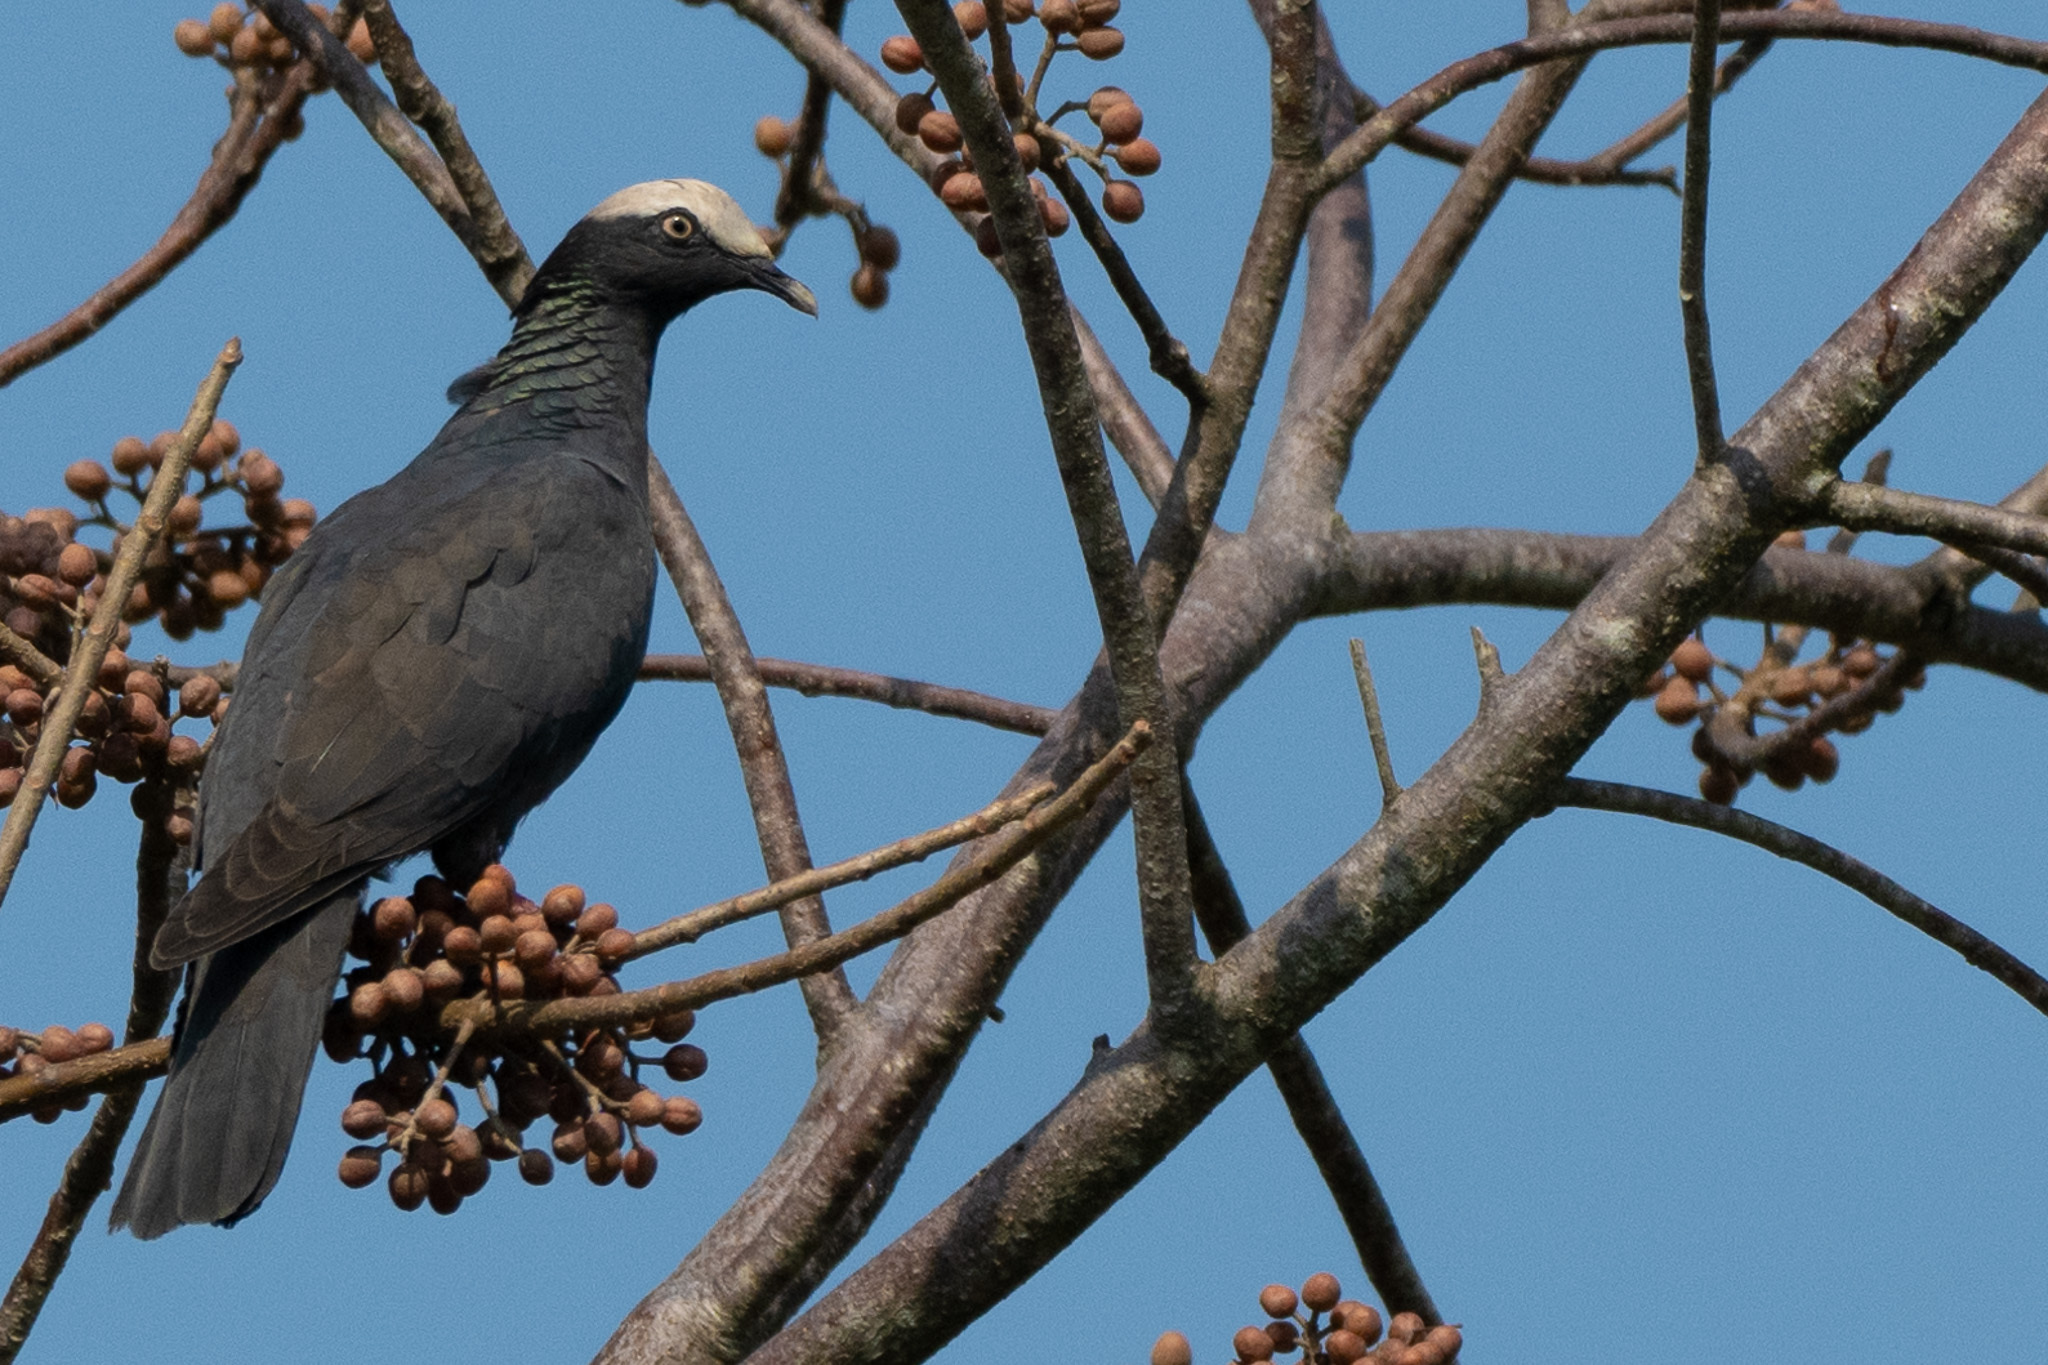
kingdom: Animalia
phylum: Chordata
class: Aves
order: Columbiformes
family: Columbidae
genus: Patagioenas
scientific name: Patagioenas leucocephala
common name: White-crowned pigeon
